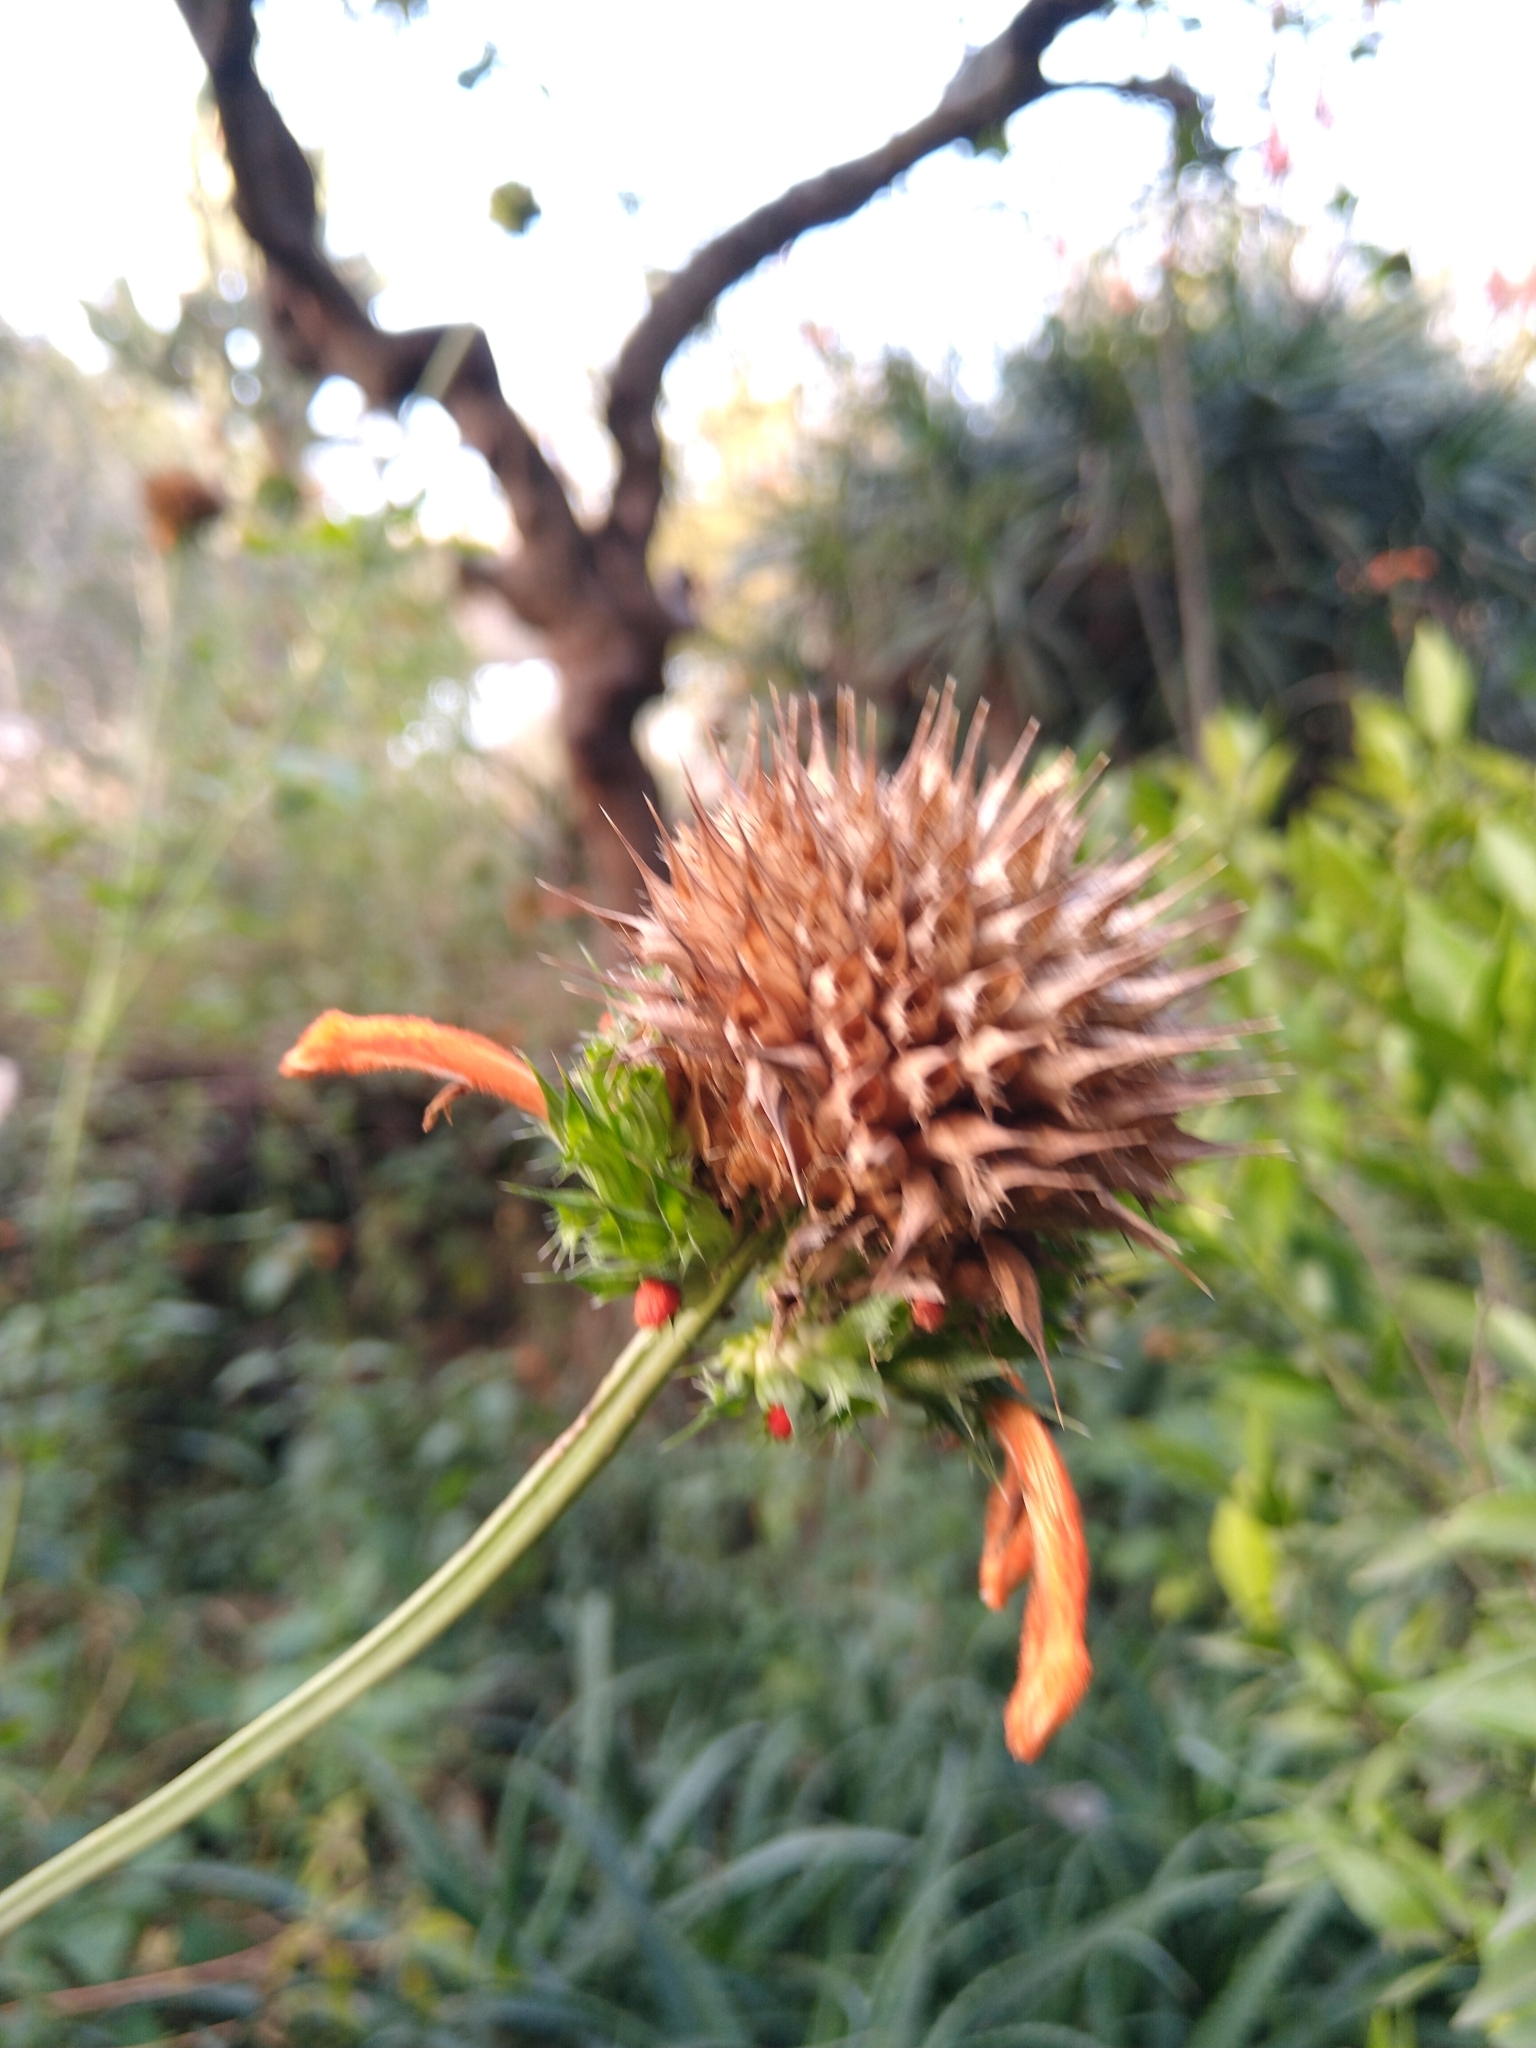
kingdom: Plantae
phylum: Tracheophyta
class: Magnoliopsida
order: Lamiales
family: Lamiaceae
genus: Leonotis
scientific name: Leonotis nepetifolia
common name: Christmas candlestick
